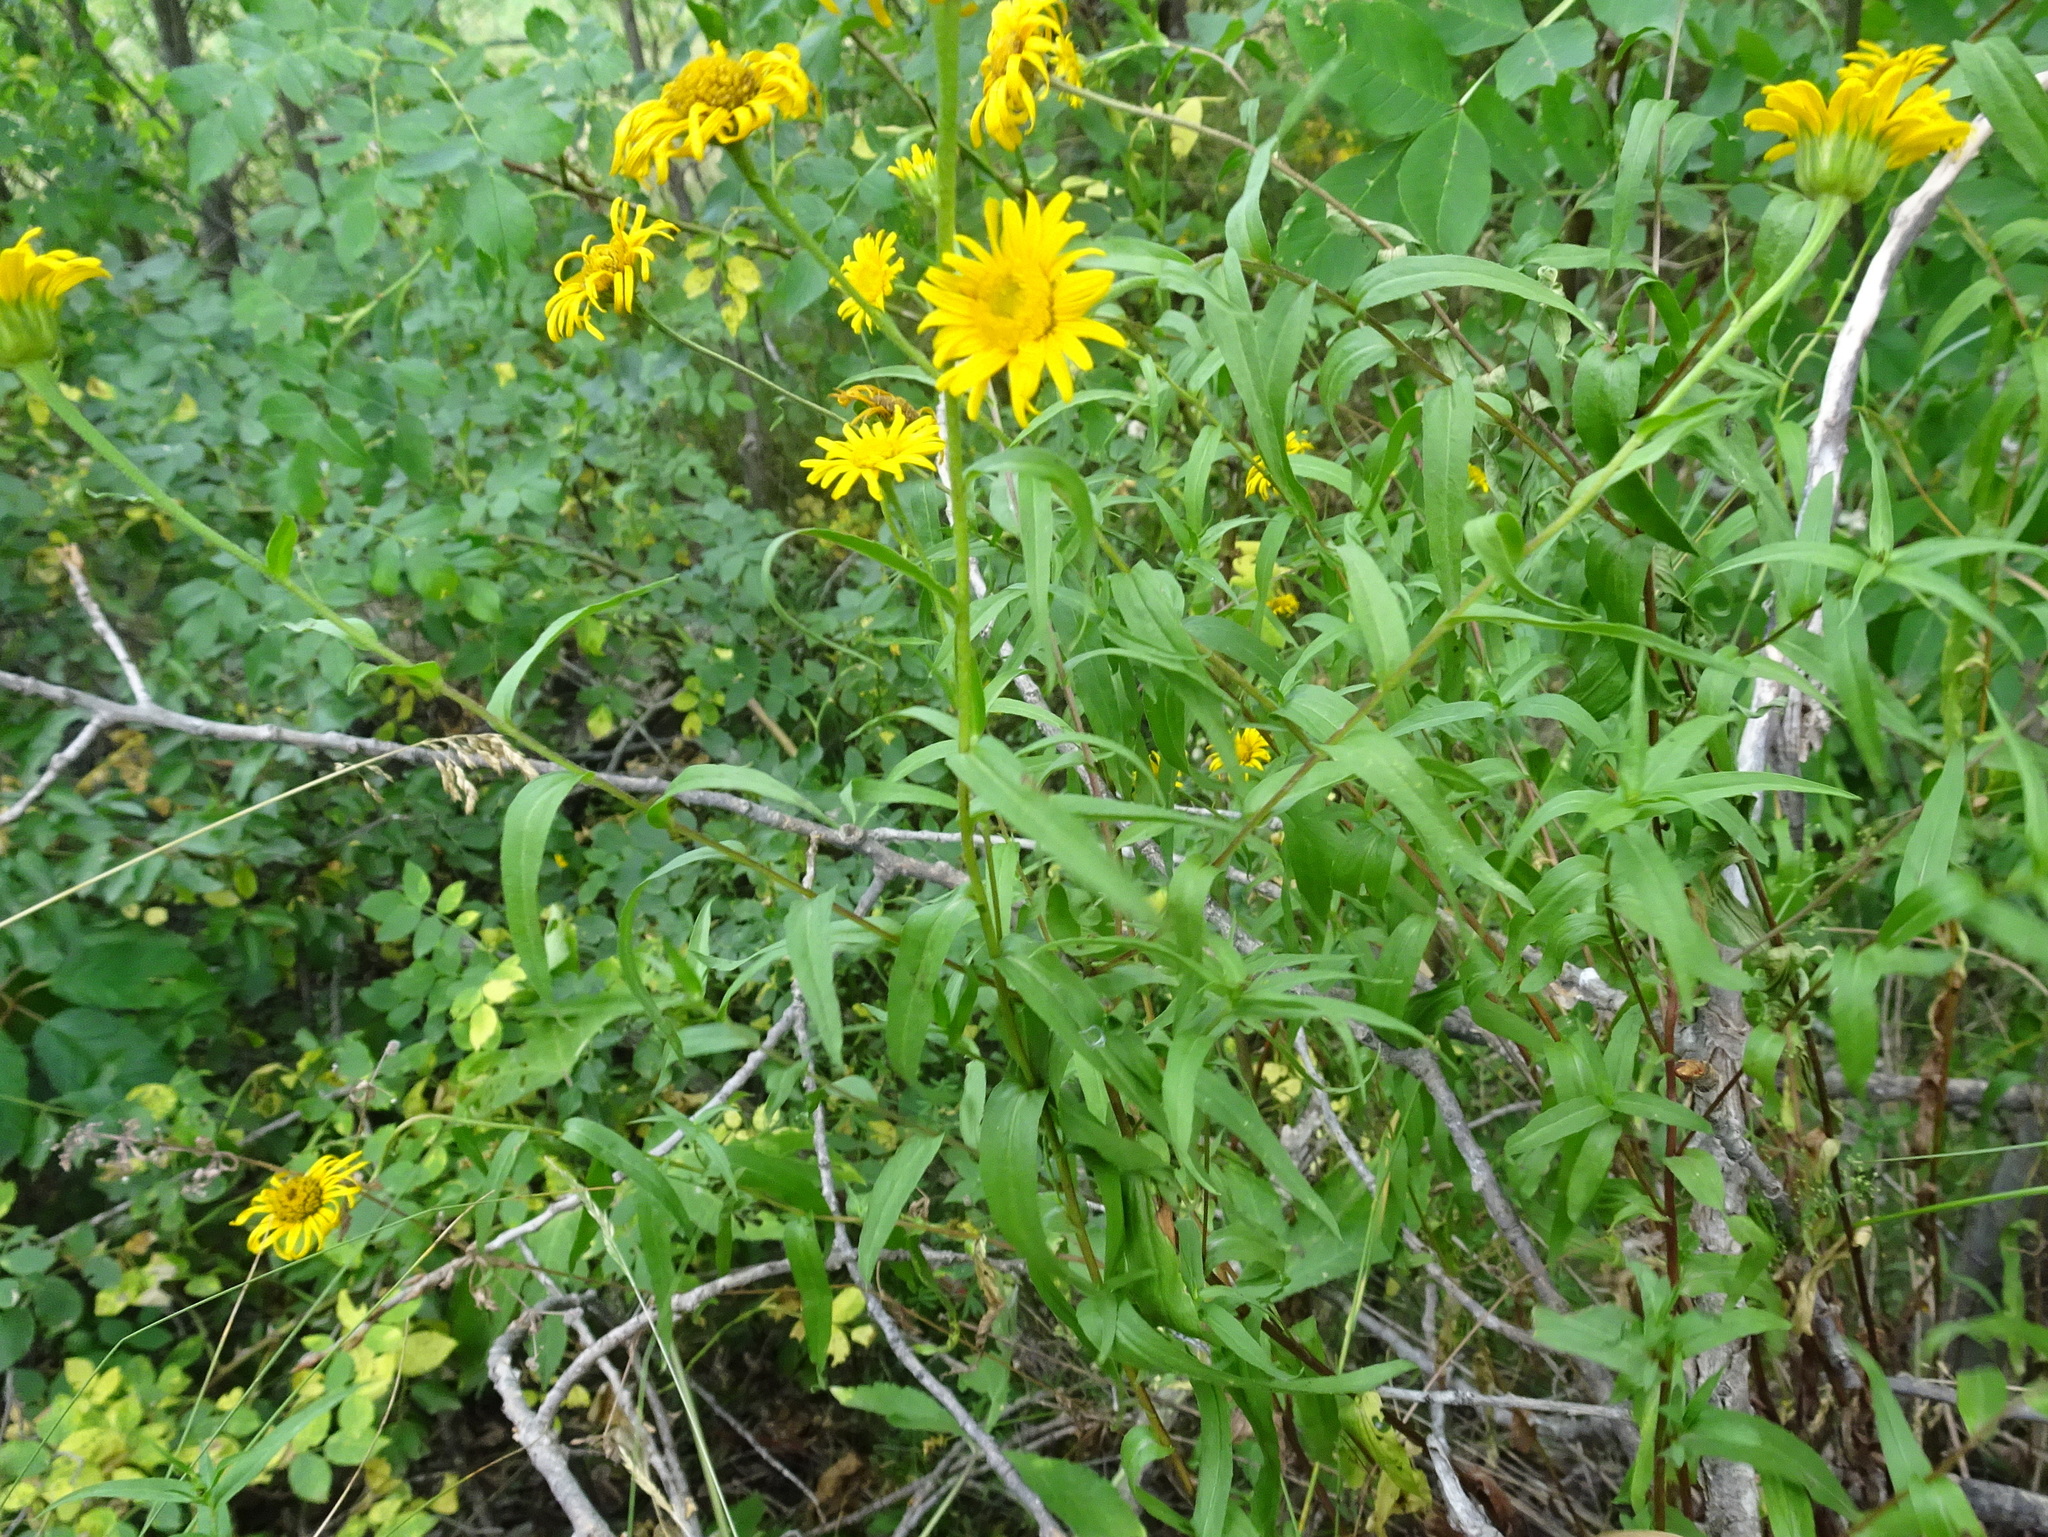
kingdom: Plantae
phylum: Tracheophyta
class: Magnoliopsida
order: Asterales
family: Asteraceae
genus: Buphthalmum
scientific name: Buphthalmum salicifolium
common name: Willow-leaved yellow-oxeye
